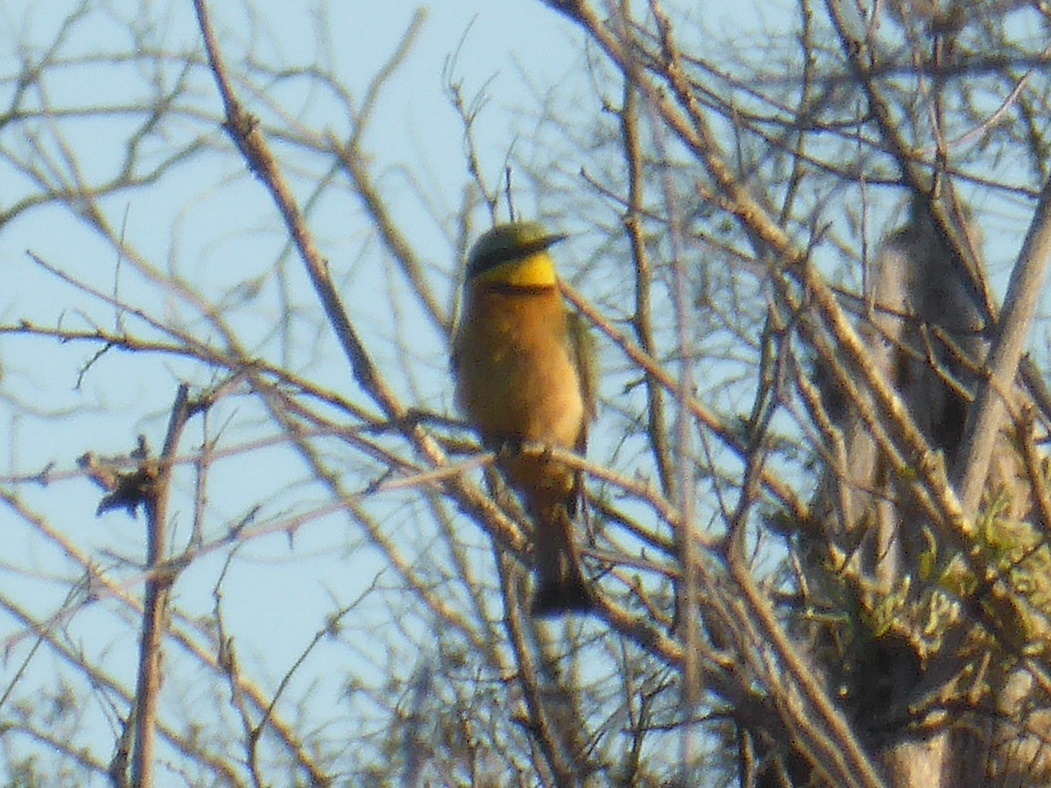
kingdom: Animalia
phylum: Chordata
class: Aves
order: Coraciiformes
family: Meropidae
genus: Merops
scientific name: Merops pusillus
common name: Little bee-eater
